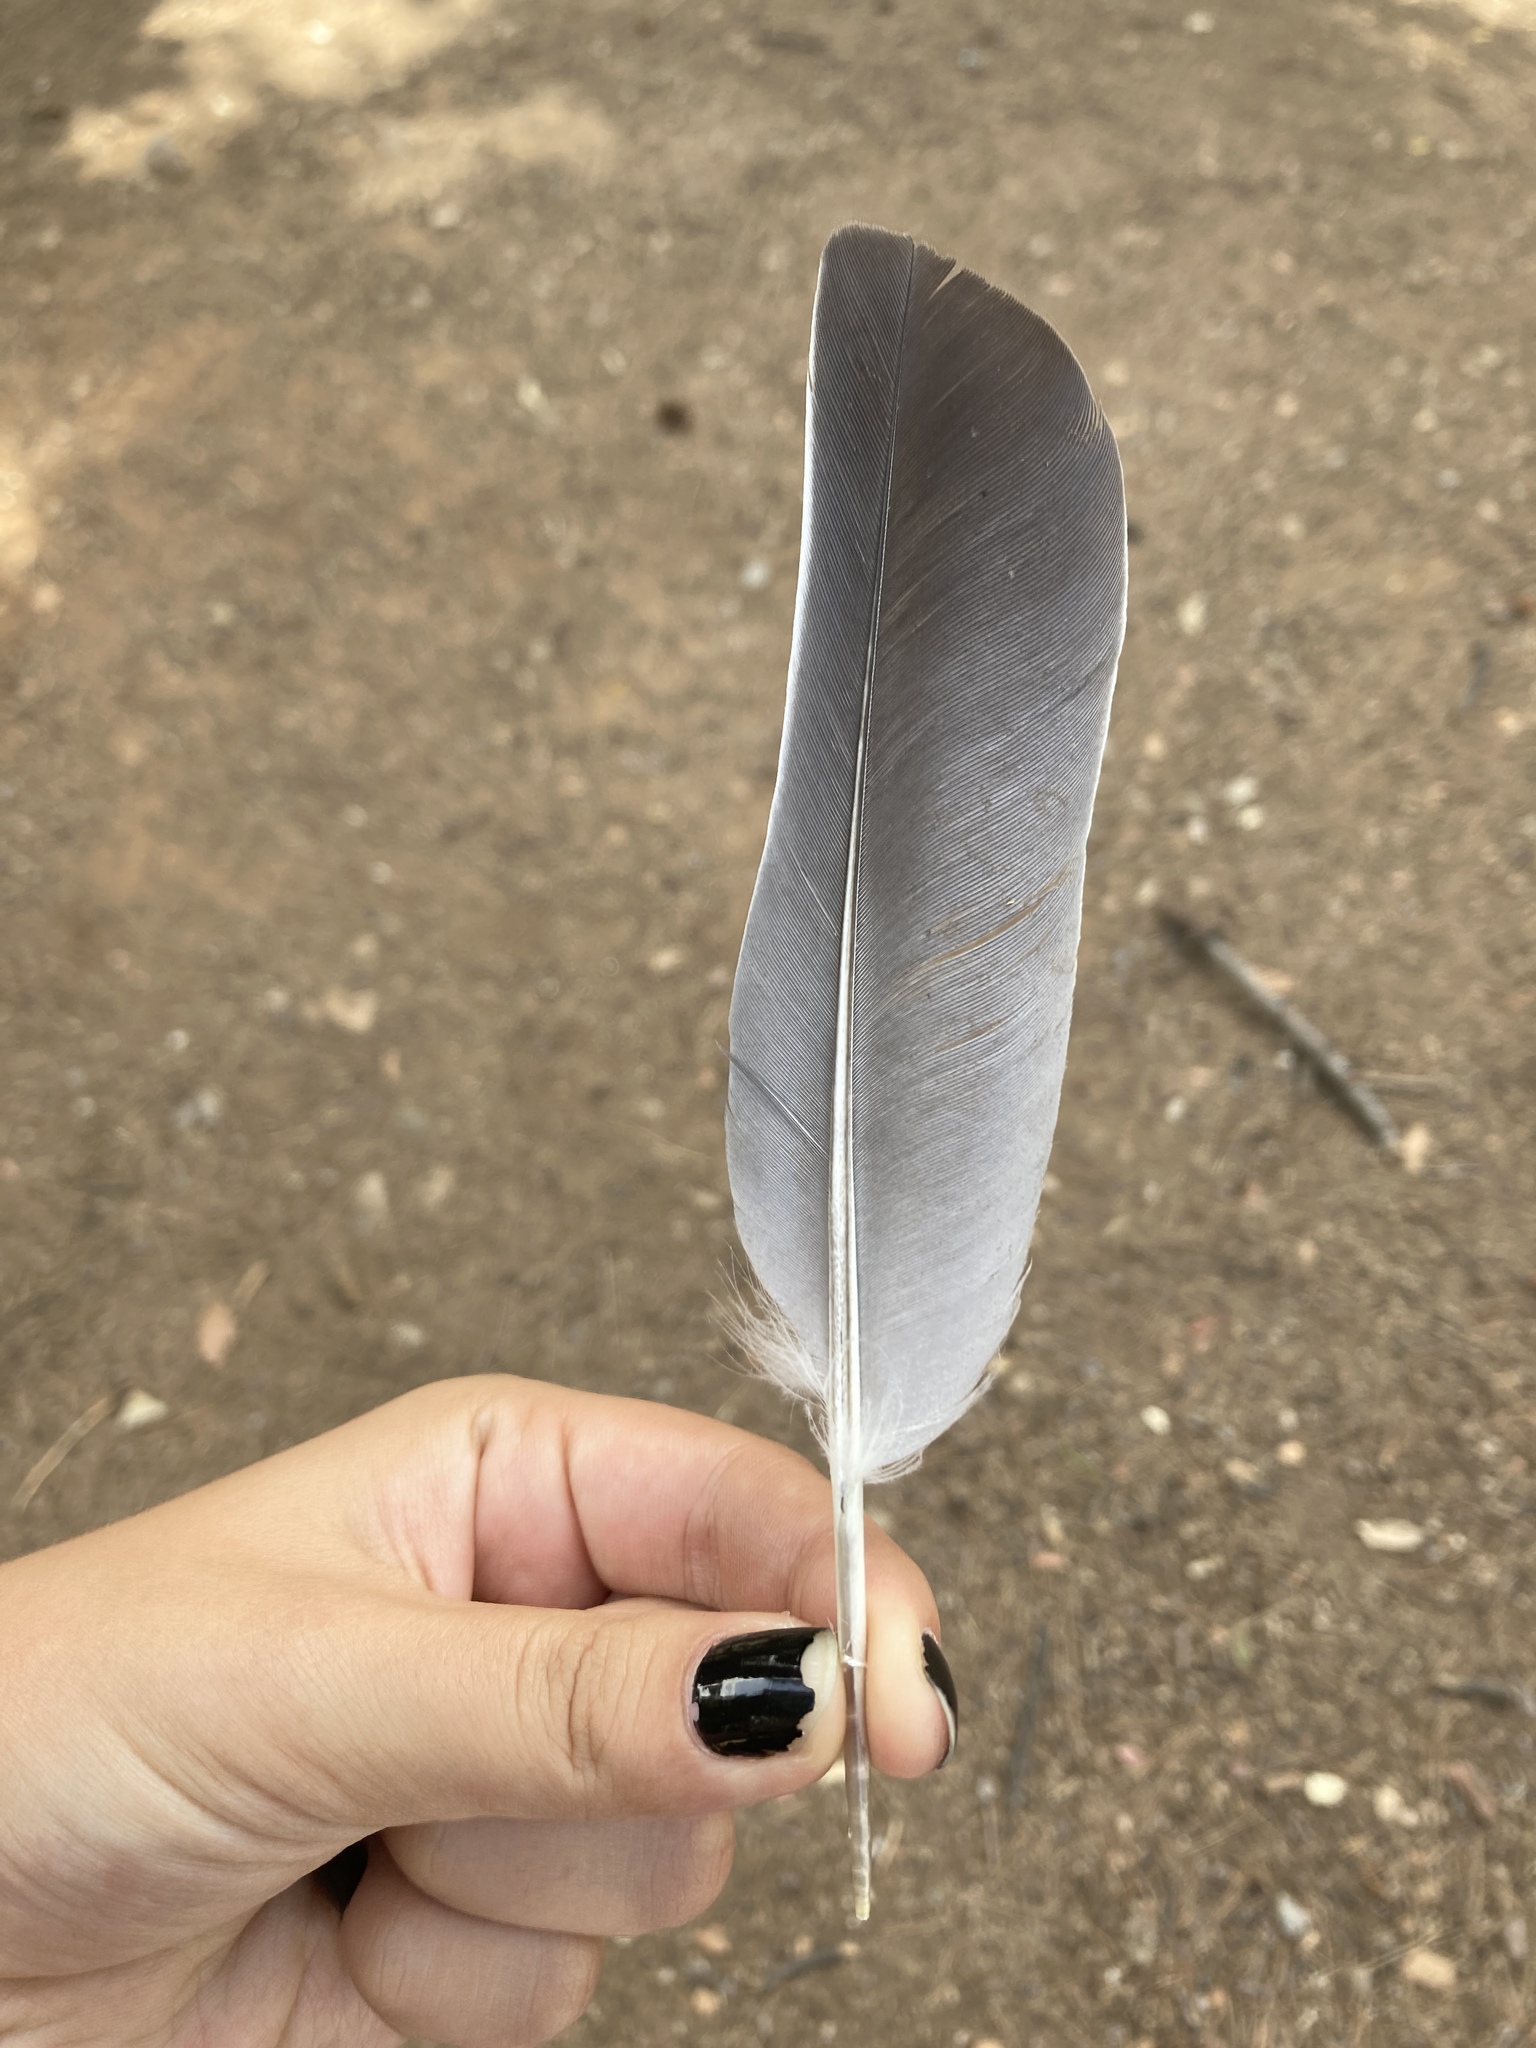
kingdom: Animalia
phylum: Chordata
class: Aves
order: Columbiformes
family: Columbidae
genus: Columba
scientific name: Columba palumbus
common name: Common wood pigeon
